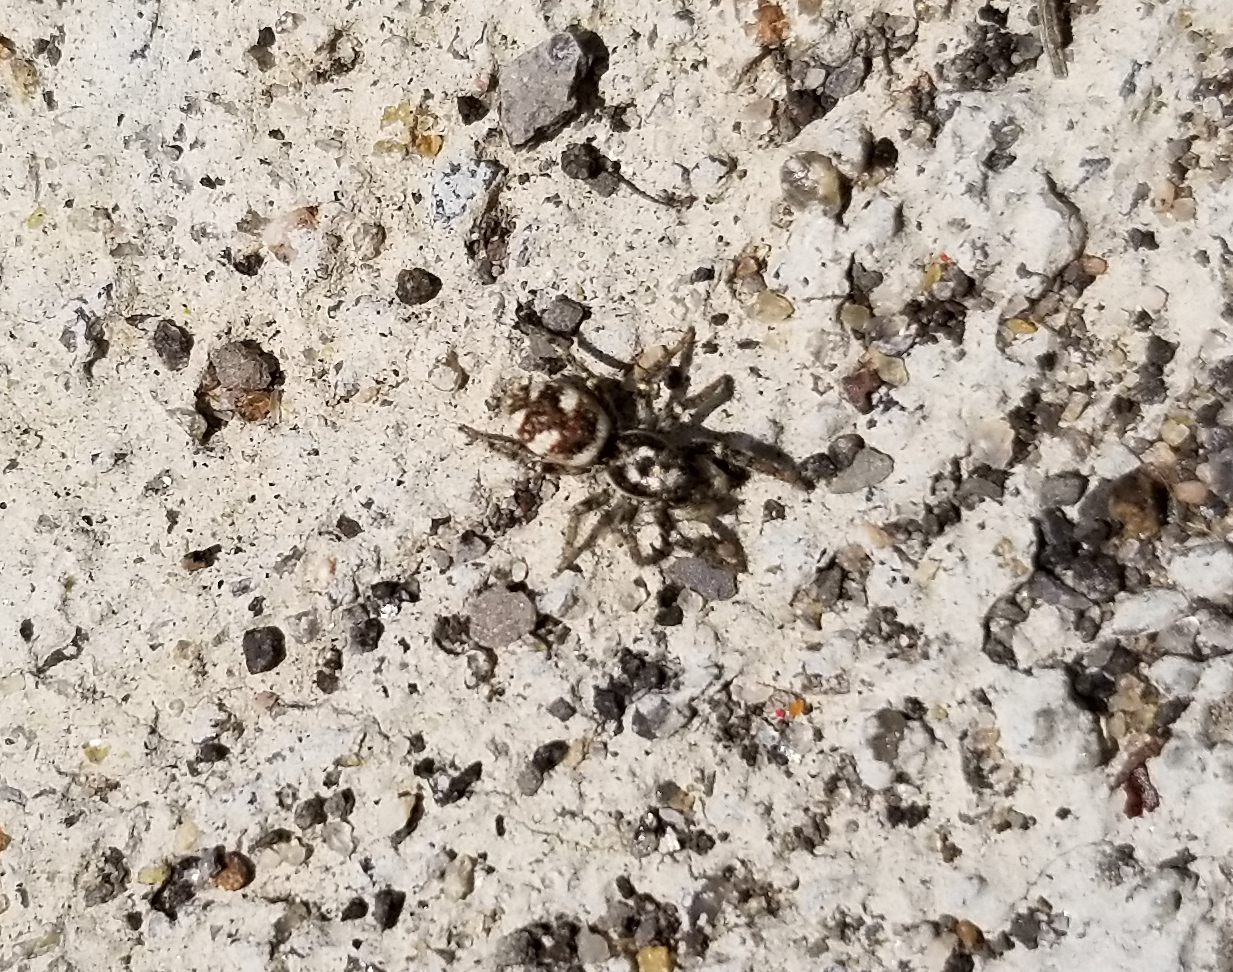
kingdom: Animalia
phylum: Arthropoda
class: Arachnida
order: Araneae
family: Salticidae
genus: Salticus
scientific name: Salticus scenicus
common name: Zebra jumper
